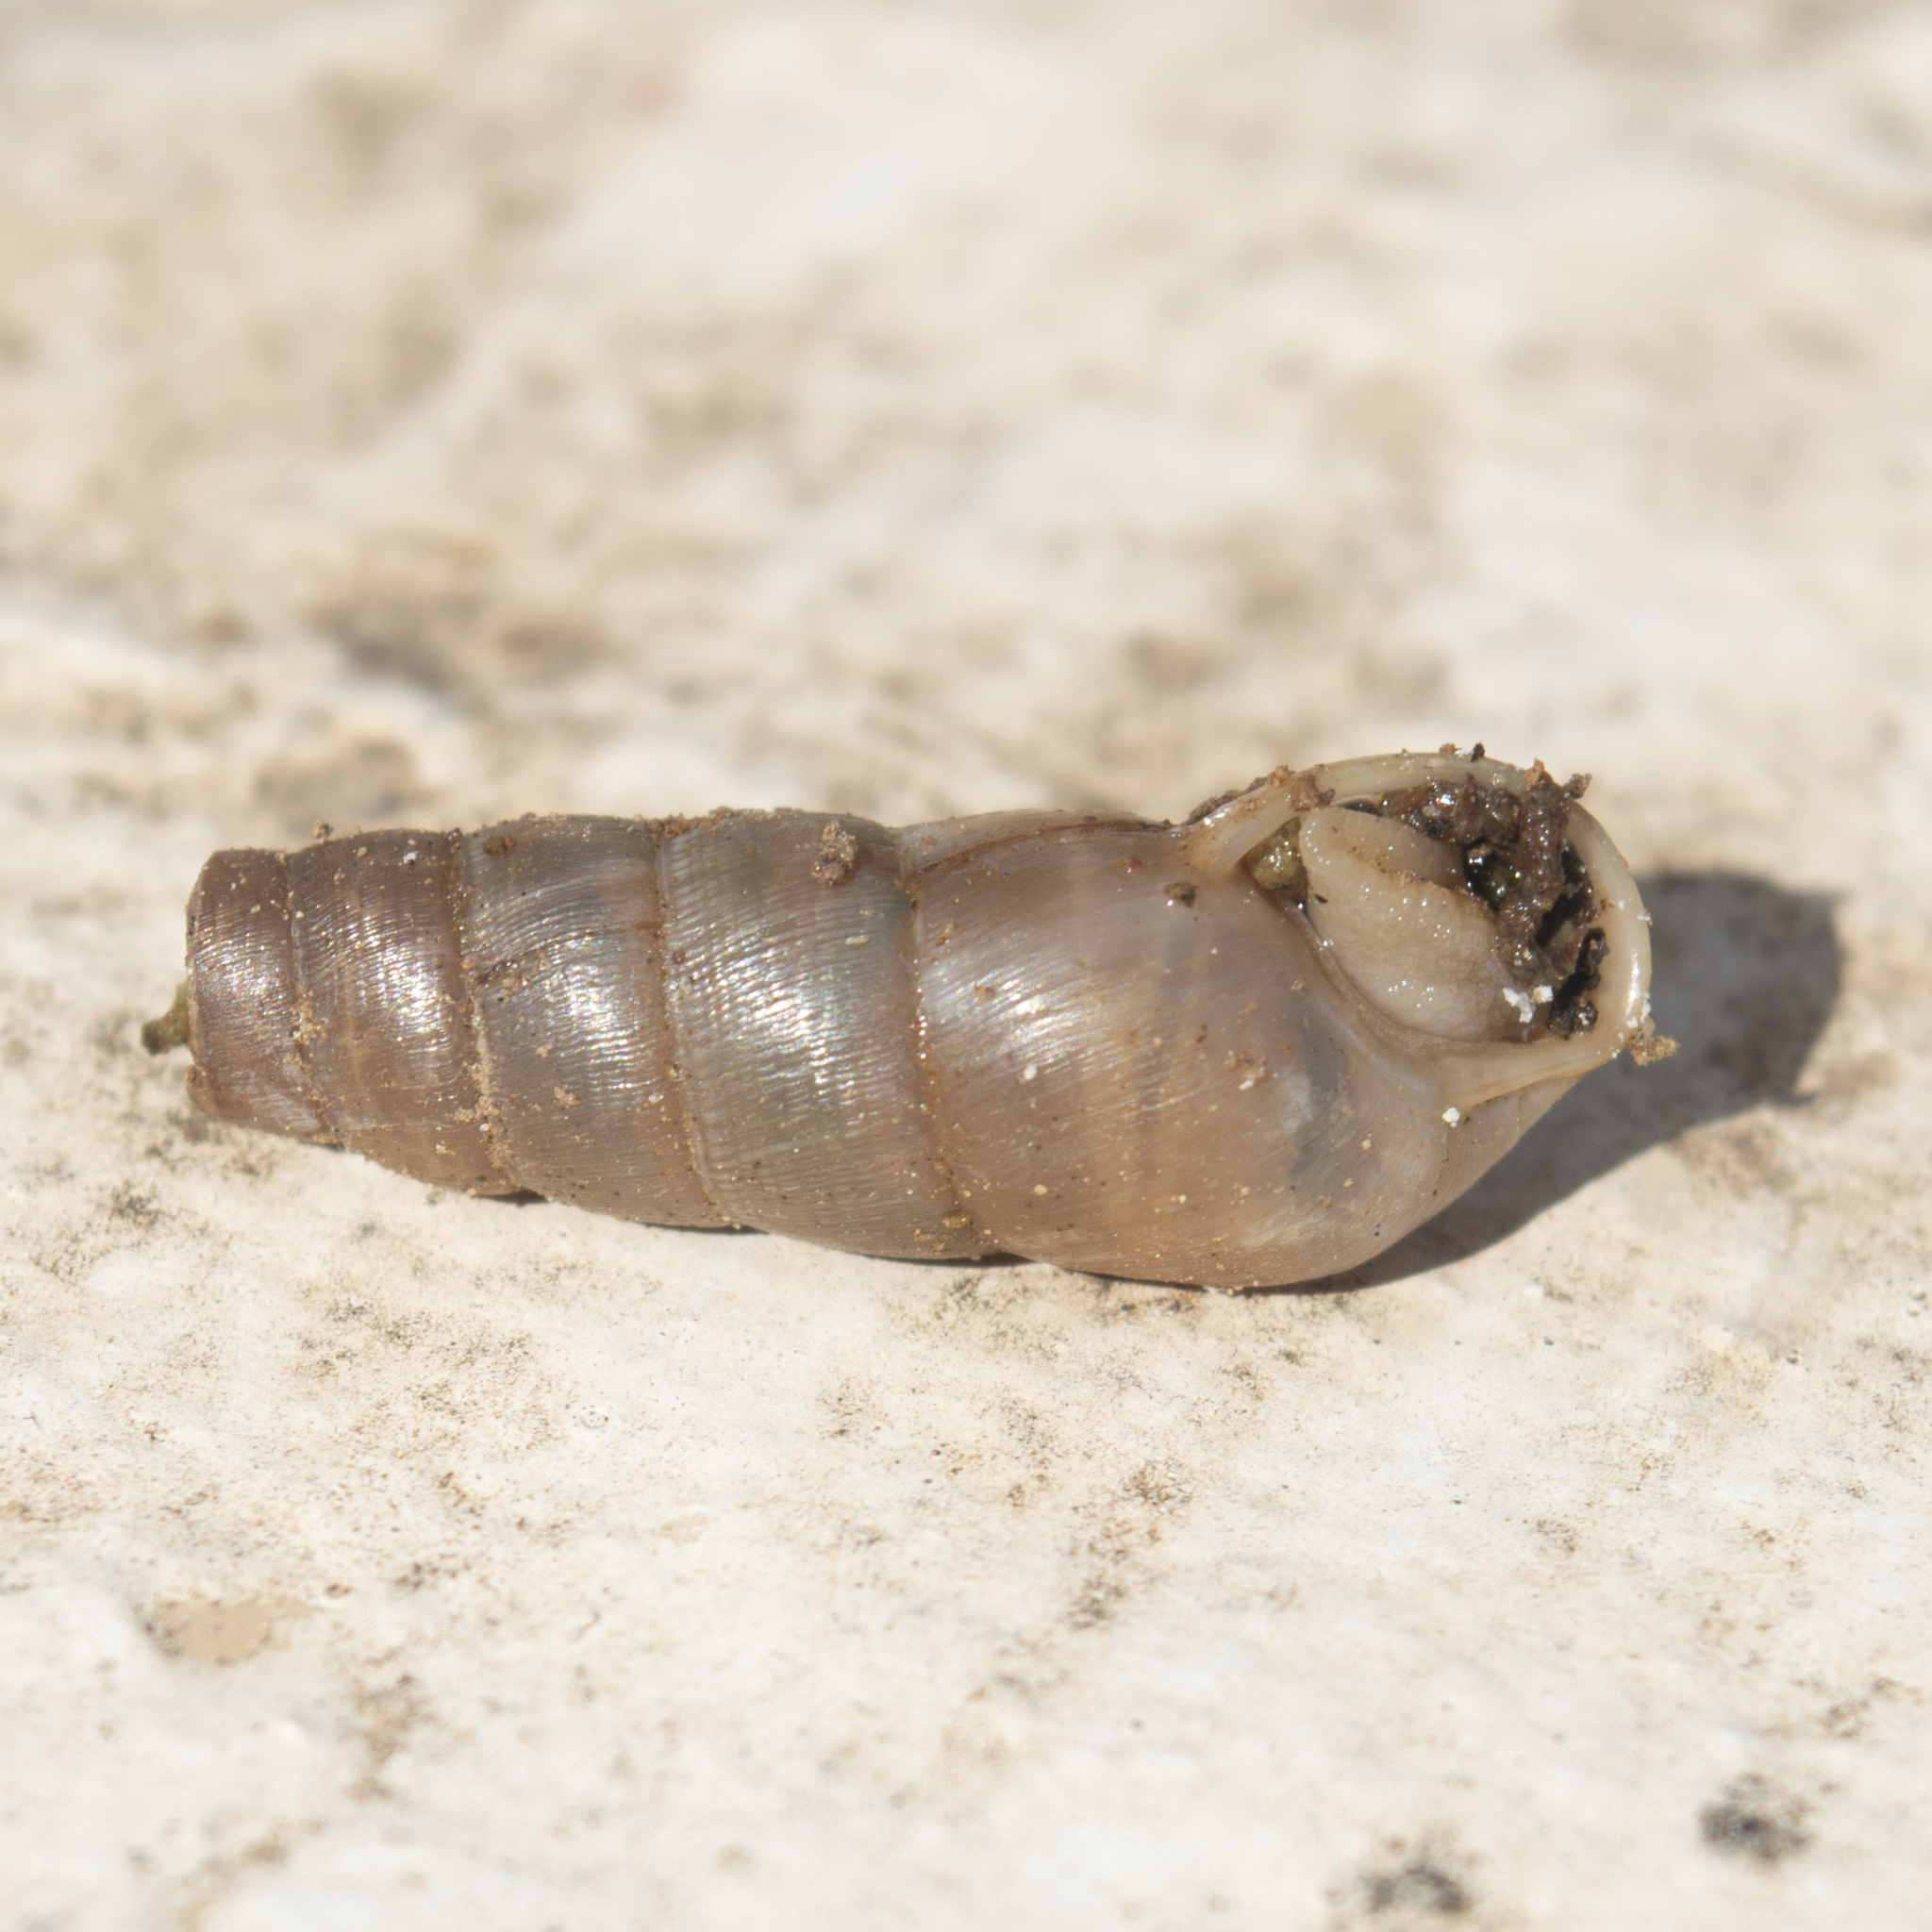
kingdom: Animalia
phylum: Mollusca
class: Gastropoda
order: Stylommatophora
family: Achatinidae
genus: Rumina
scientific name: Rumina saharica
